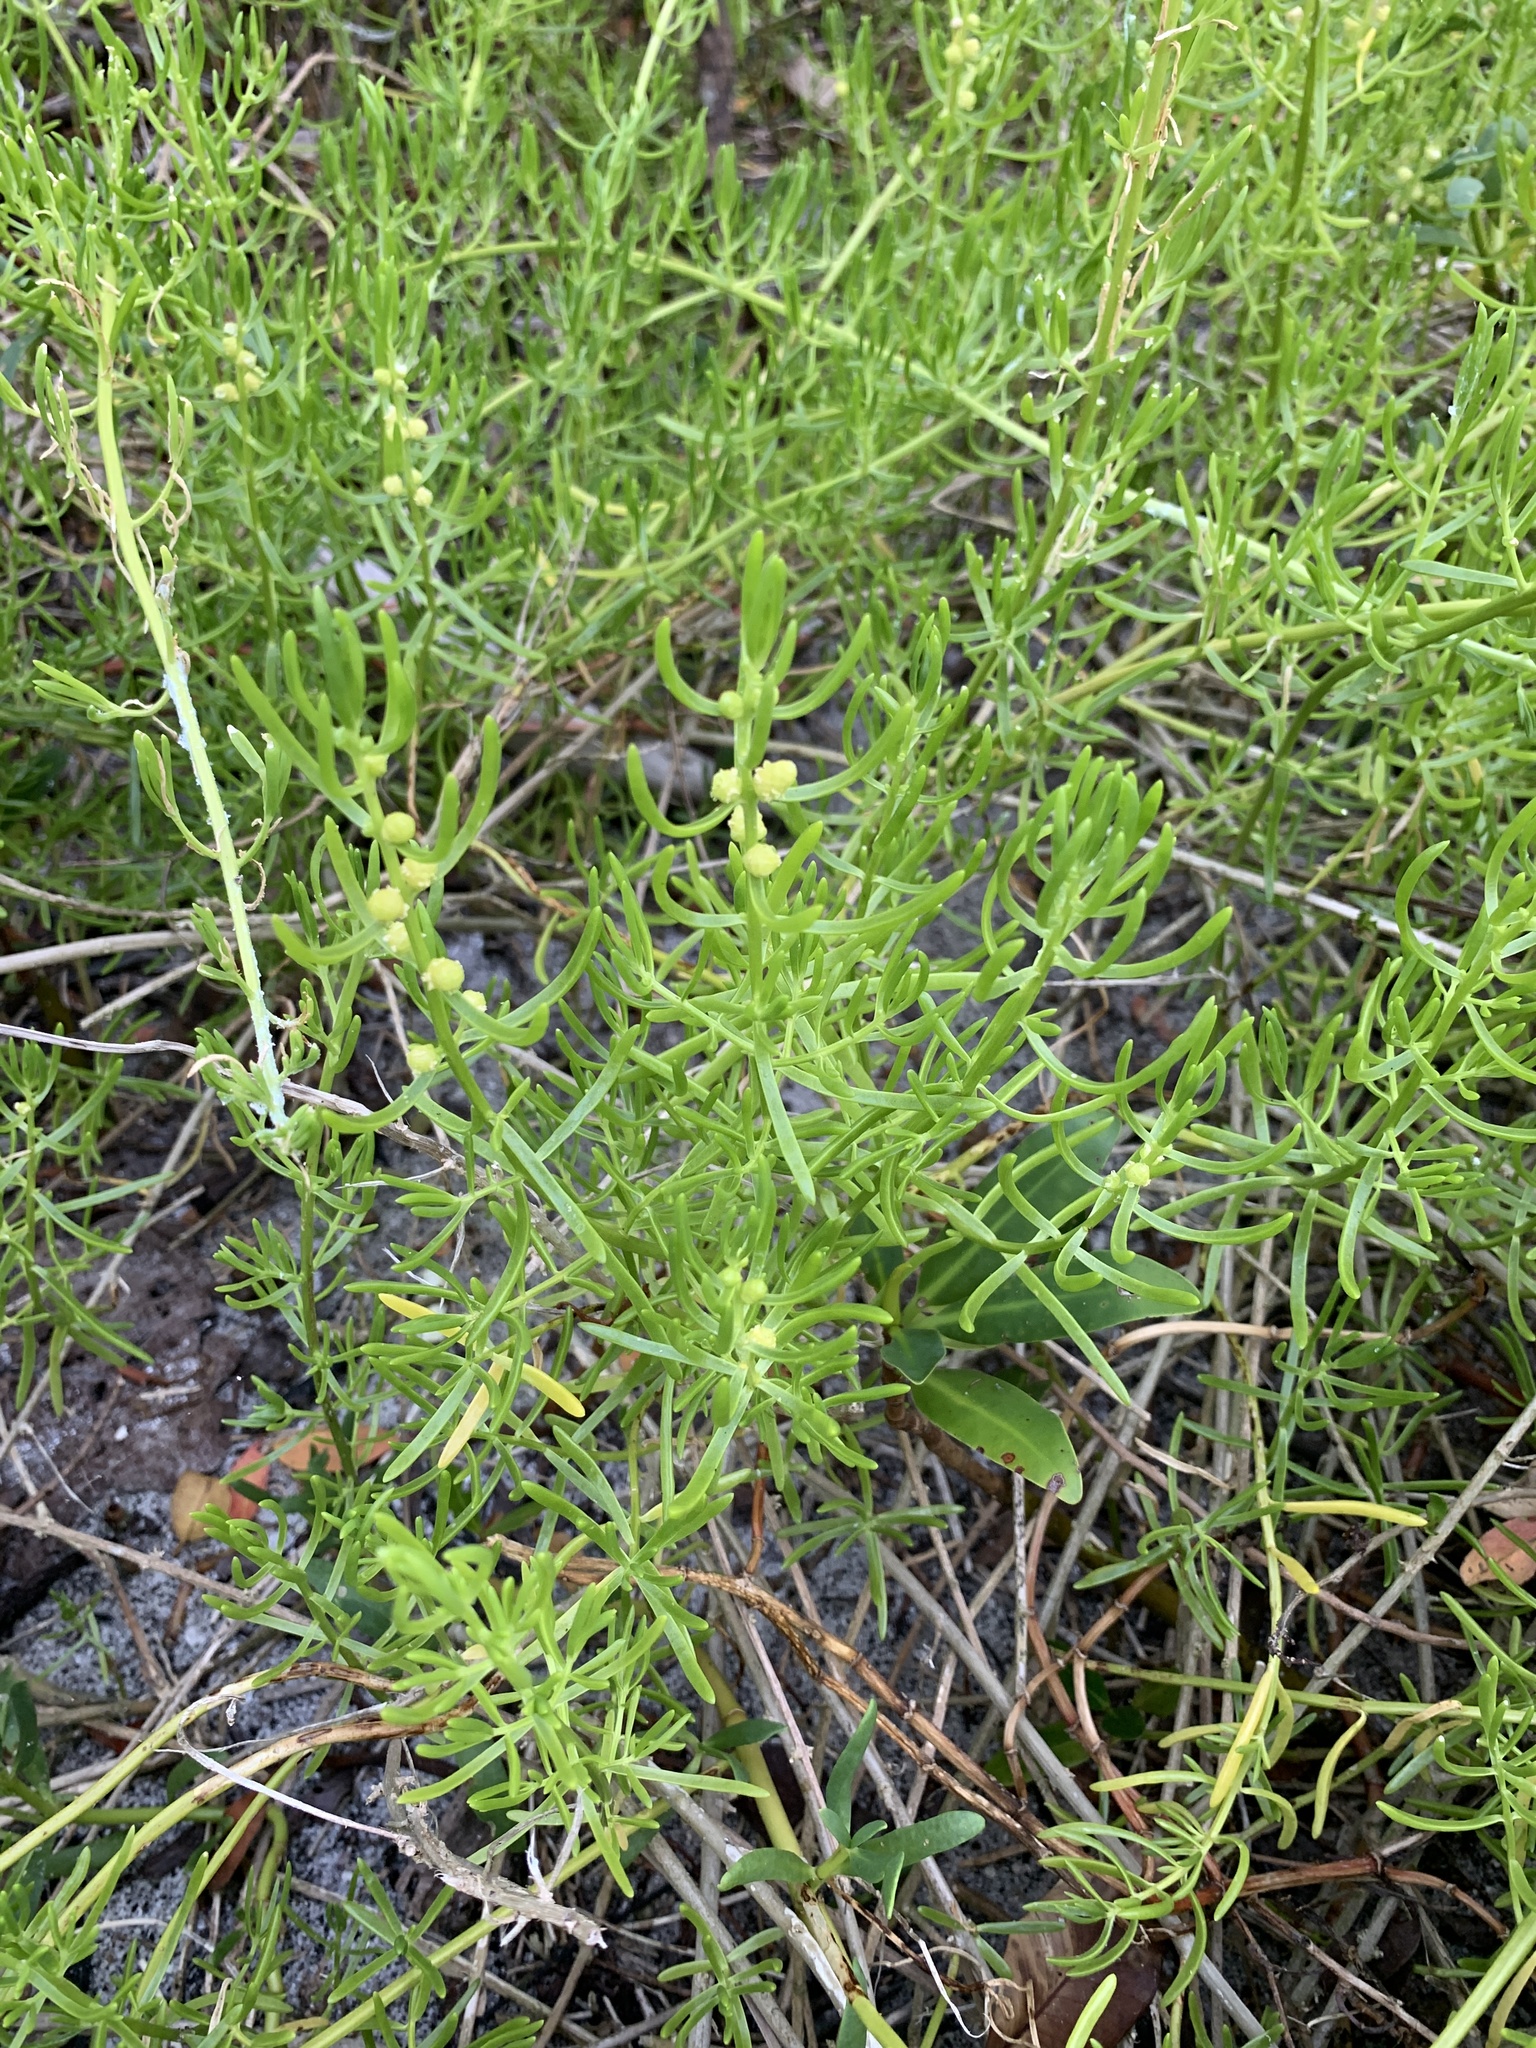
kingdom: Plantae
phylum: Tracheophyta
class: Magnoliopsida
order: Brassicales
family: Bataceae
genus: Batis
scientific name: Batis maritima
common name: Turtleweed
